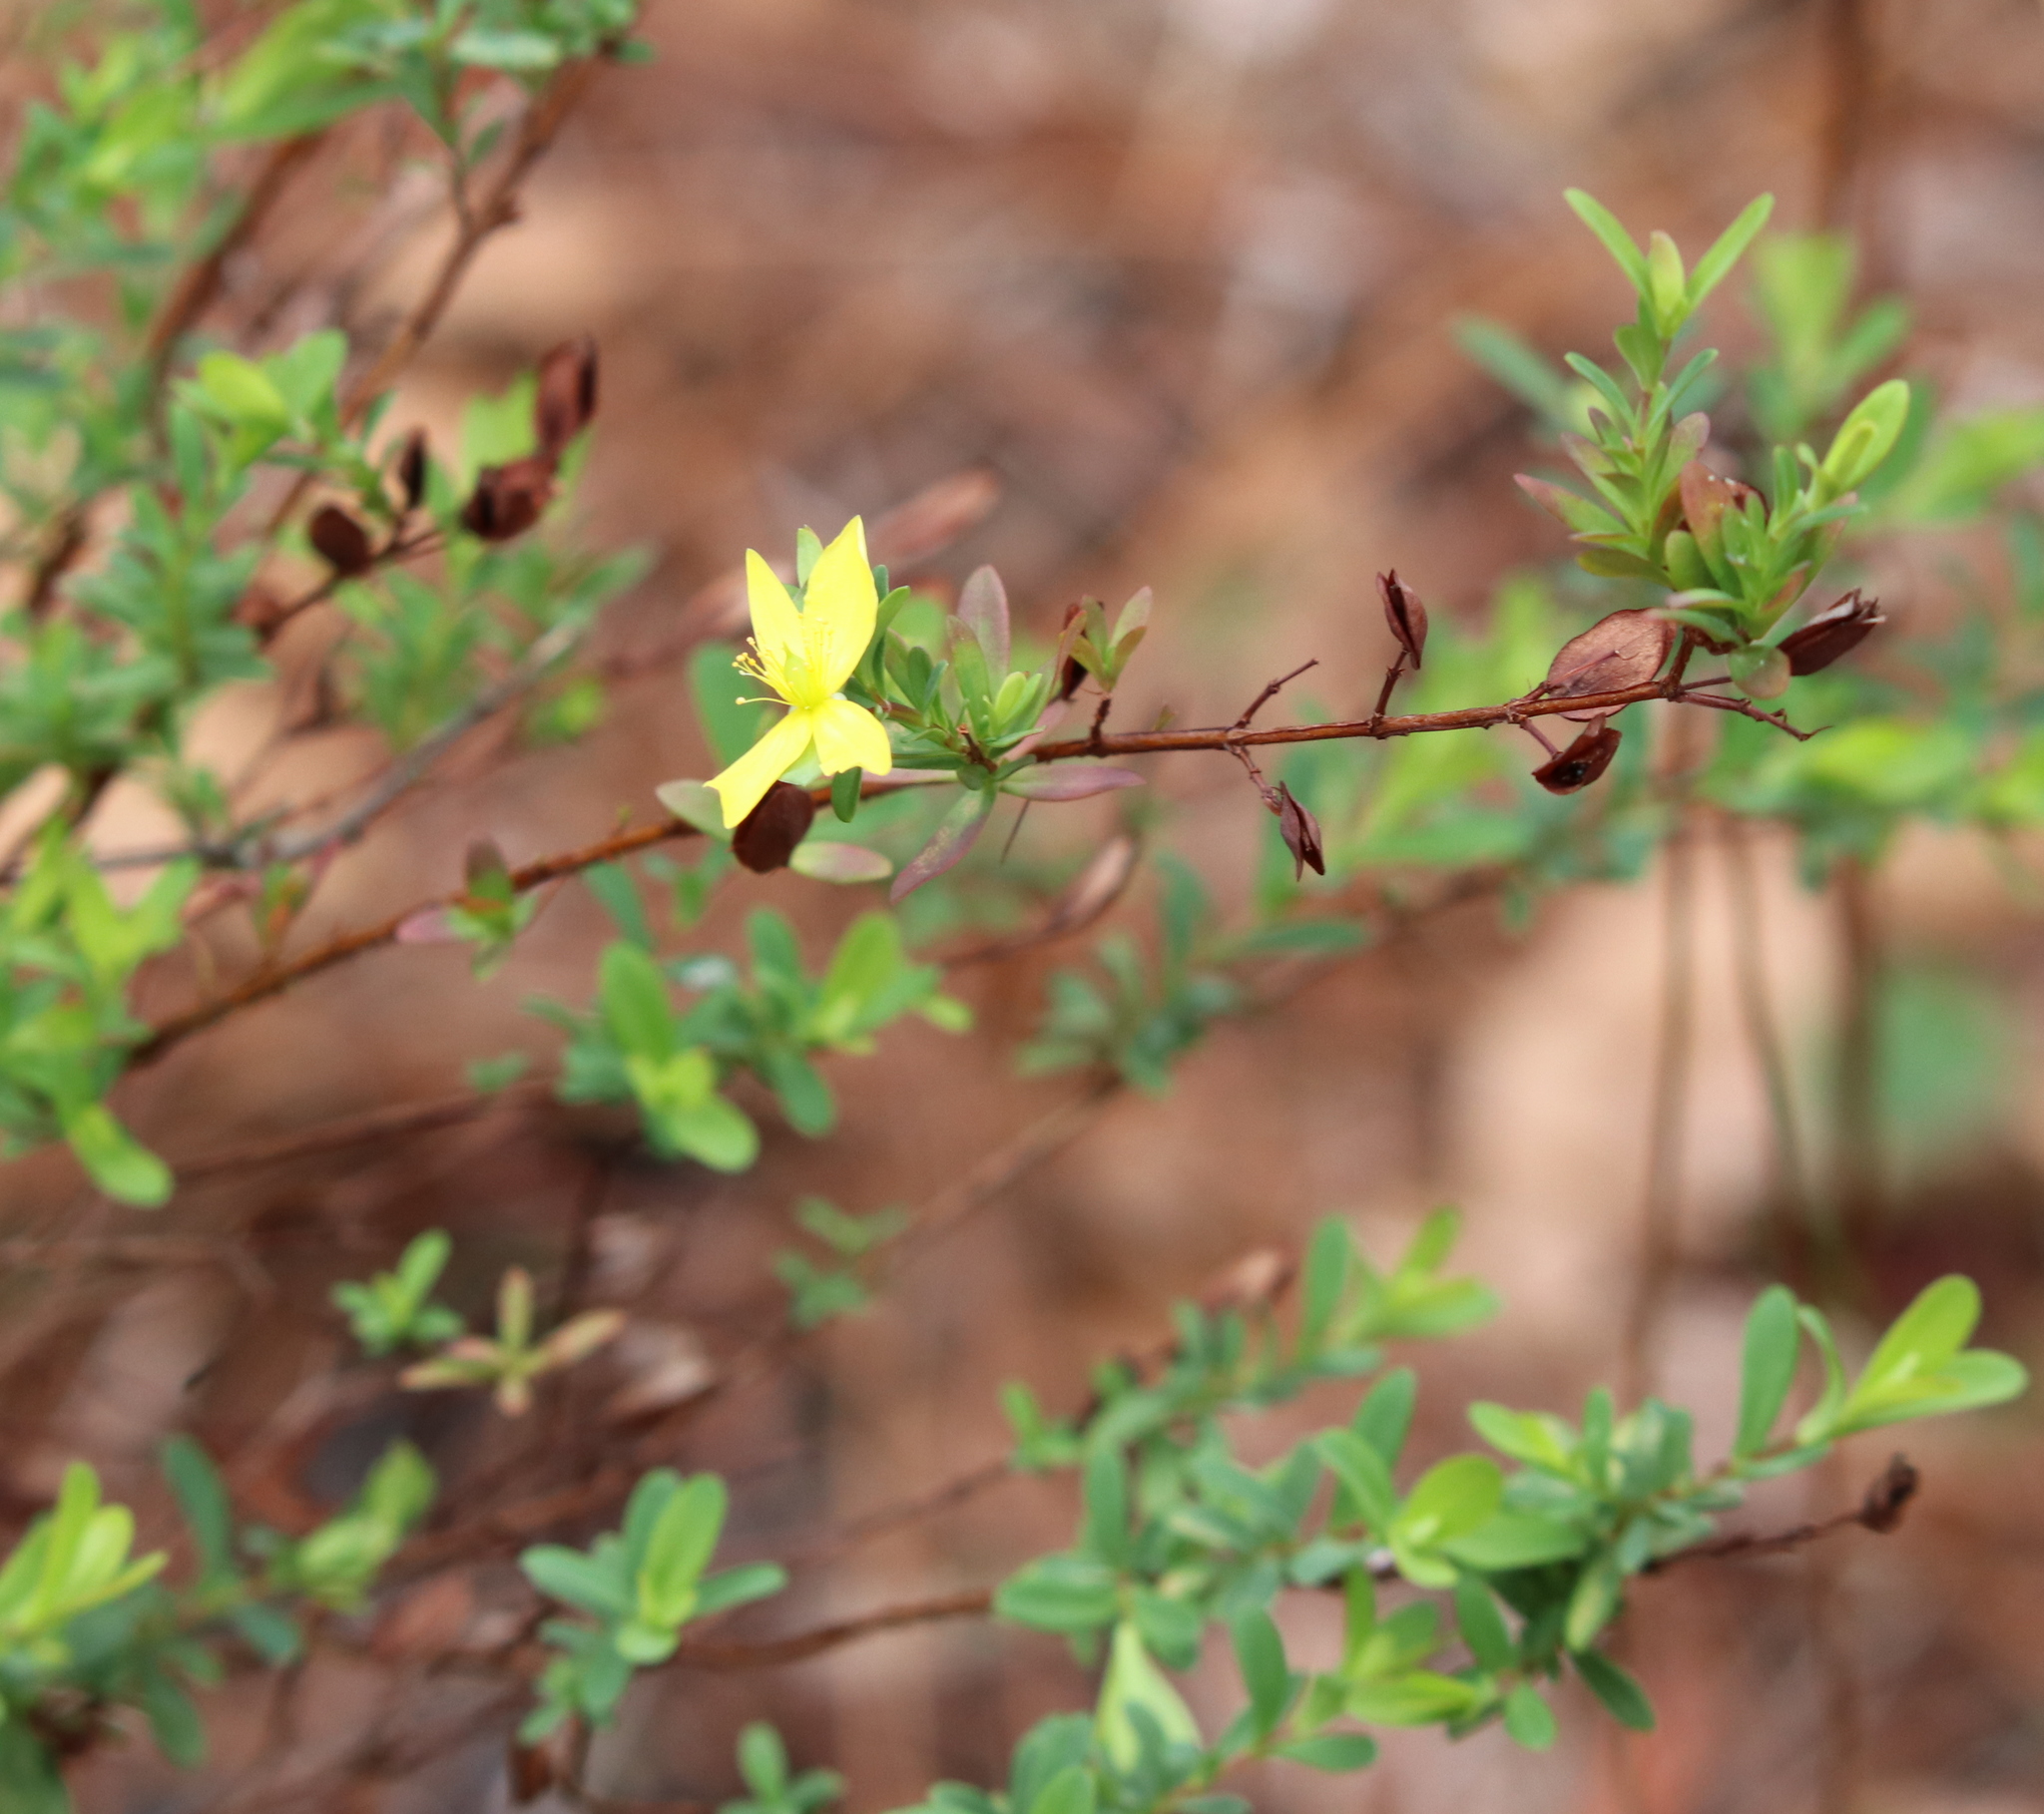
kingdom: Plantae
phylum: Tracheophyta
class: Magnoliopsida
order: Malpighiales
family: Hypericaceae
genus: Hypericum
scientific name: Hypericum hypericoides
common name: St. andrew's cross
